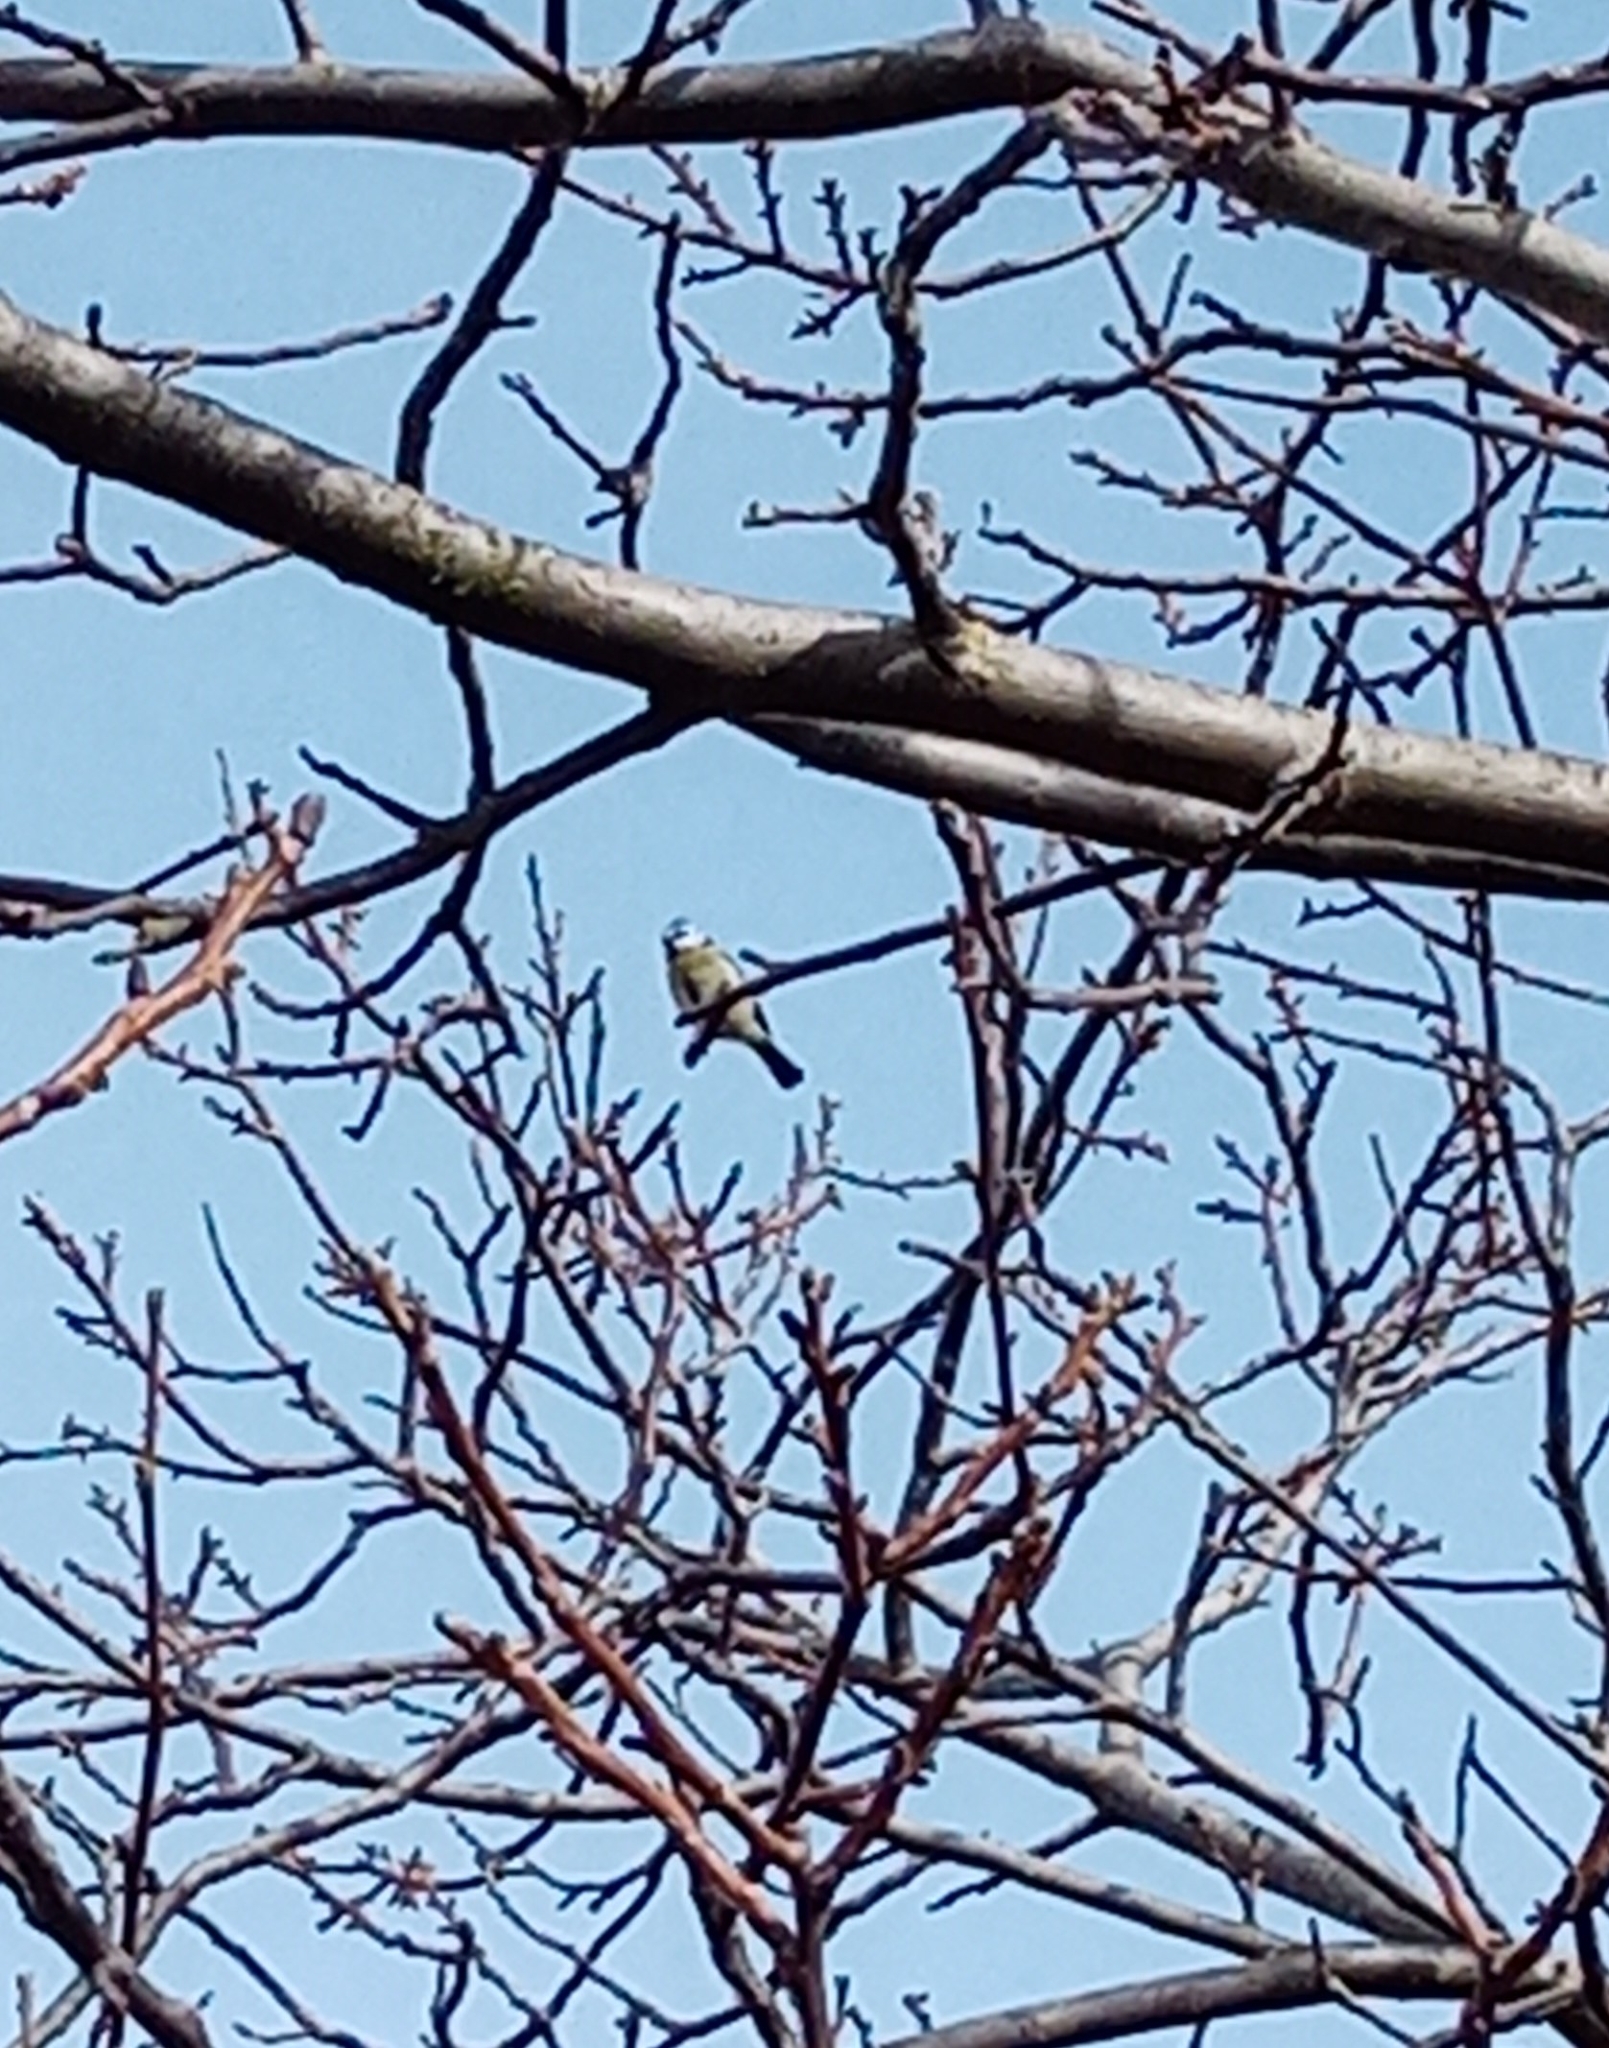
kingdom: Animalia
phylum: Chordata
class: Aves
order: Passeriformes
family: Paridae
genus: Cyanistes
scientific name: Cyanistes caeruleus
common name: Eurasian blue tit
